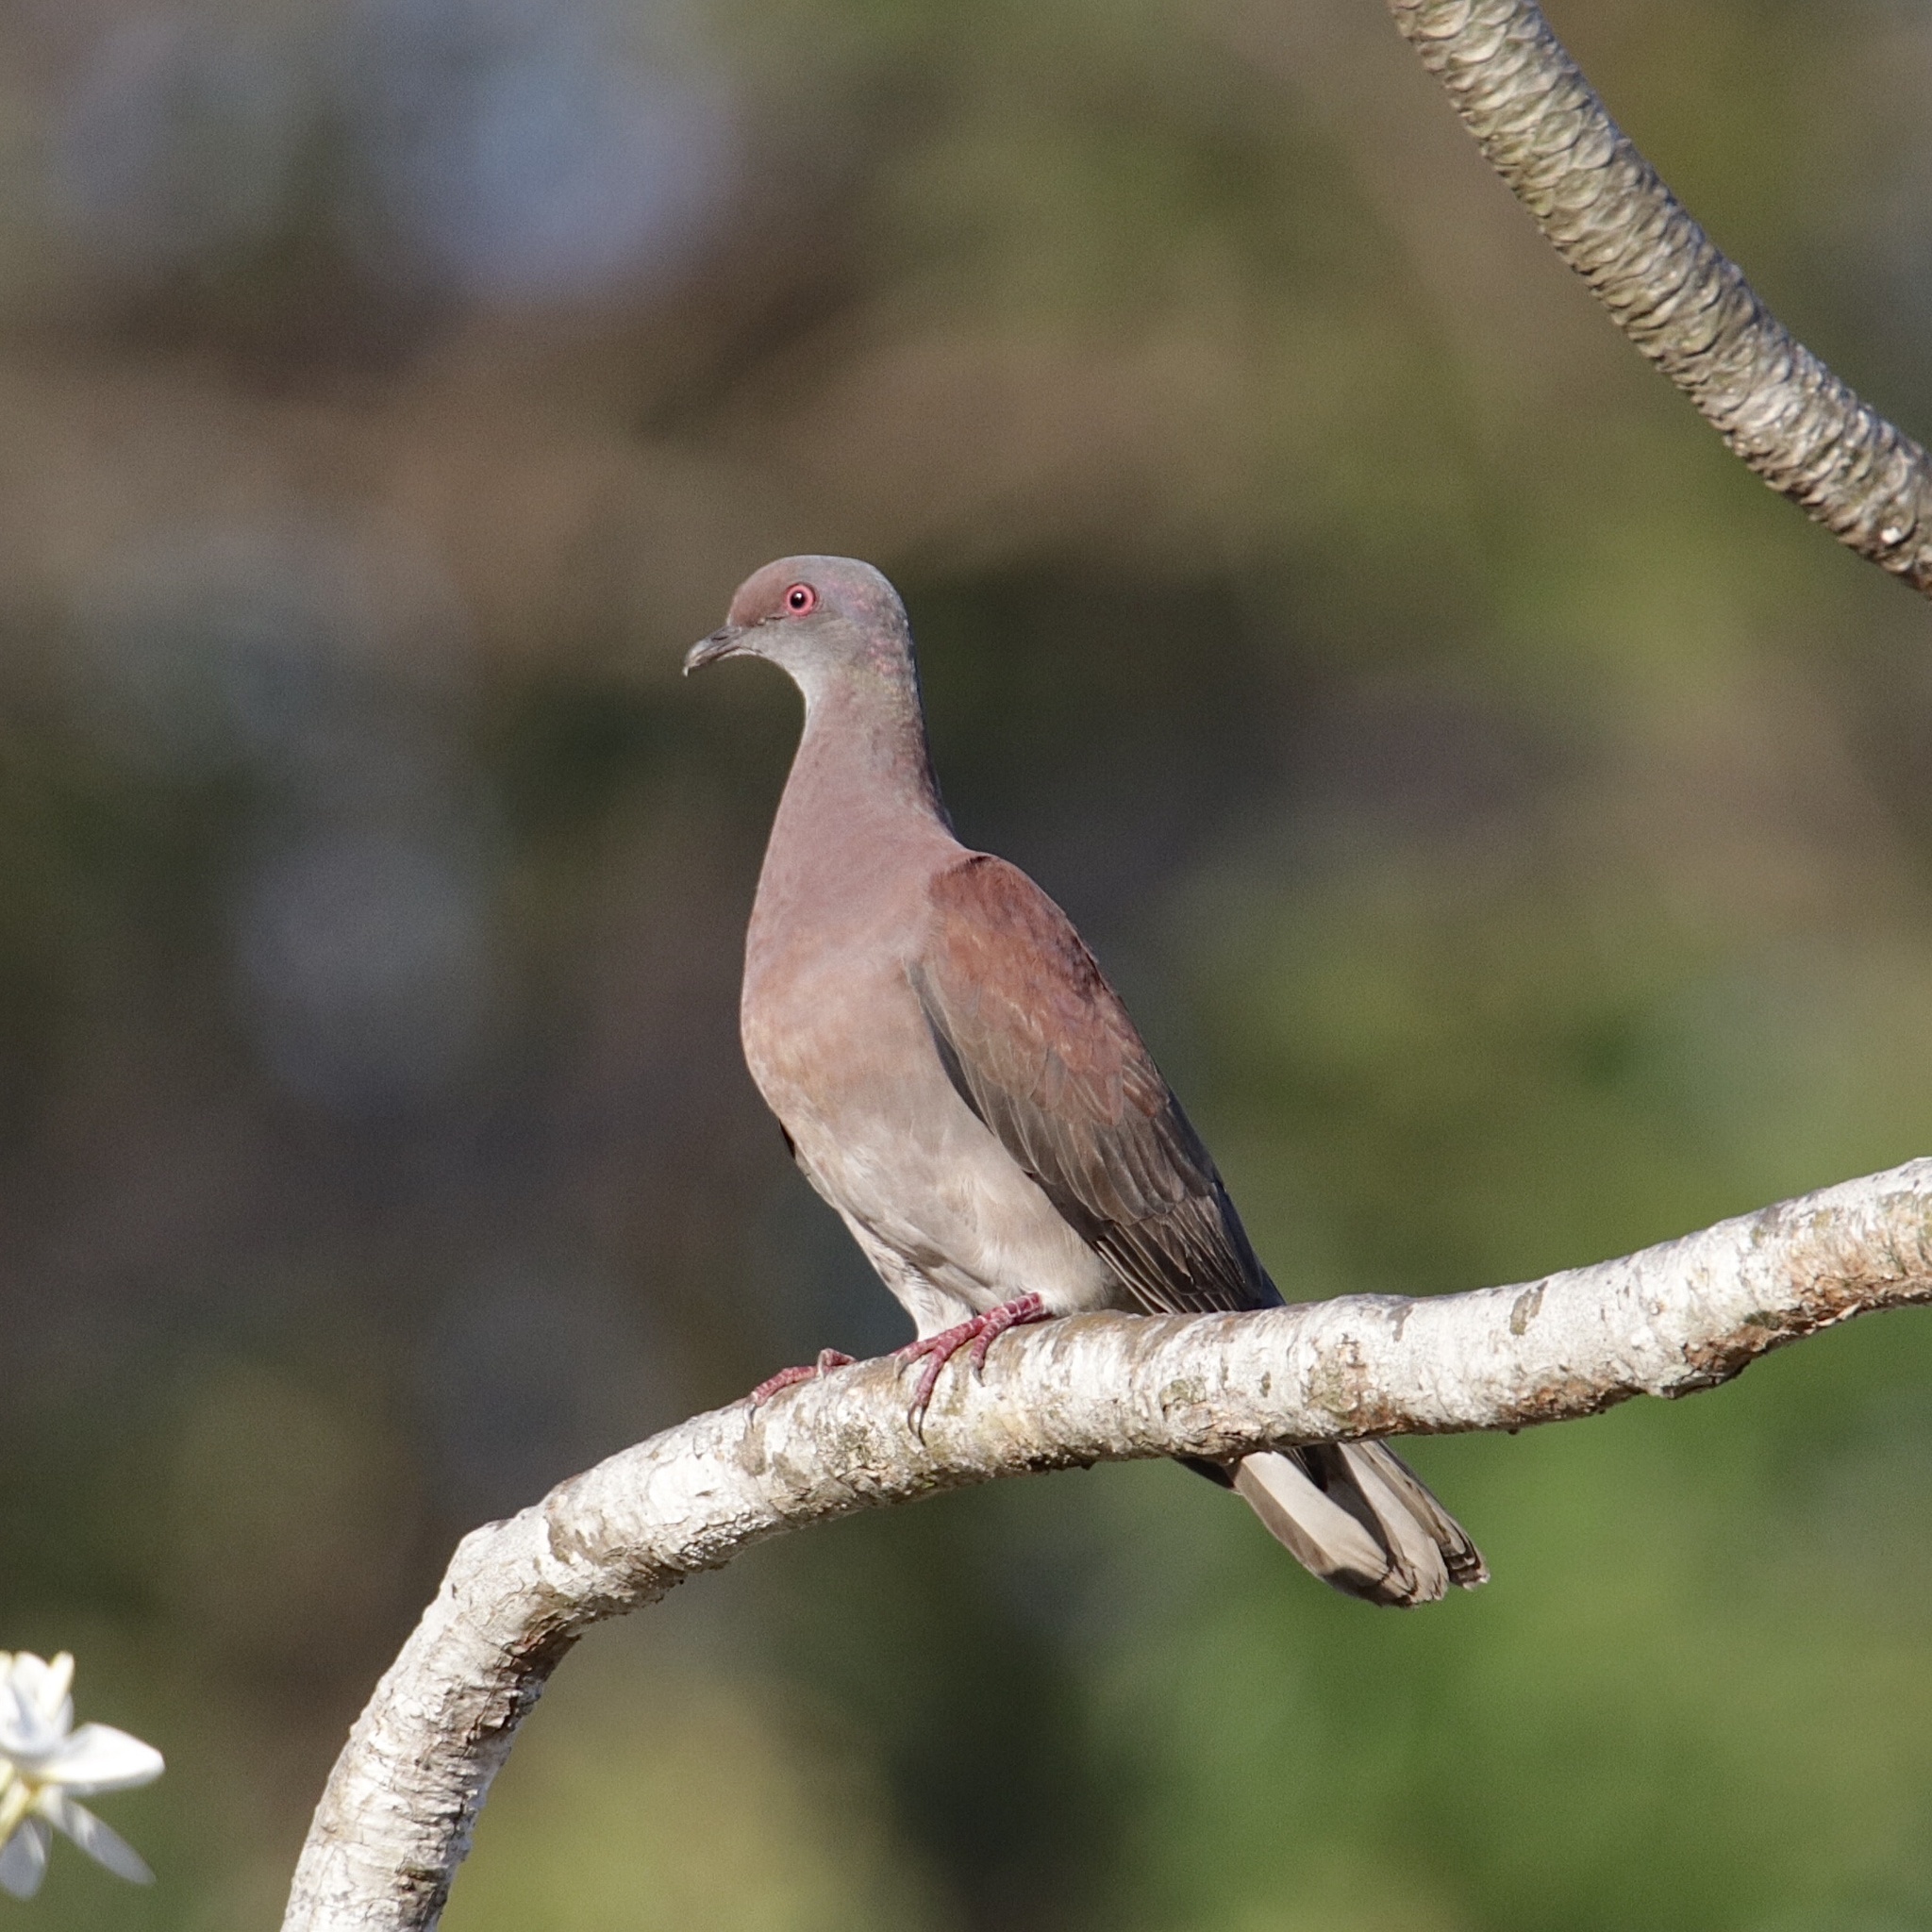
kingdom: Animalia
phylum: Chordata
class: Aves
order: Columbiformes
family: Columbidae
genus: Patagioenas
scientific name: Patagioenas cayennensis
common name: Pale-vented pigeon
